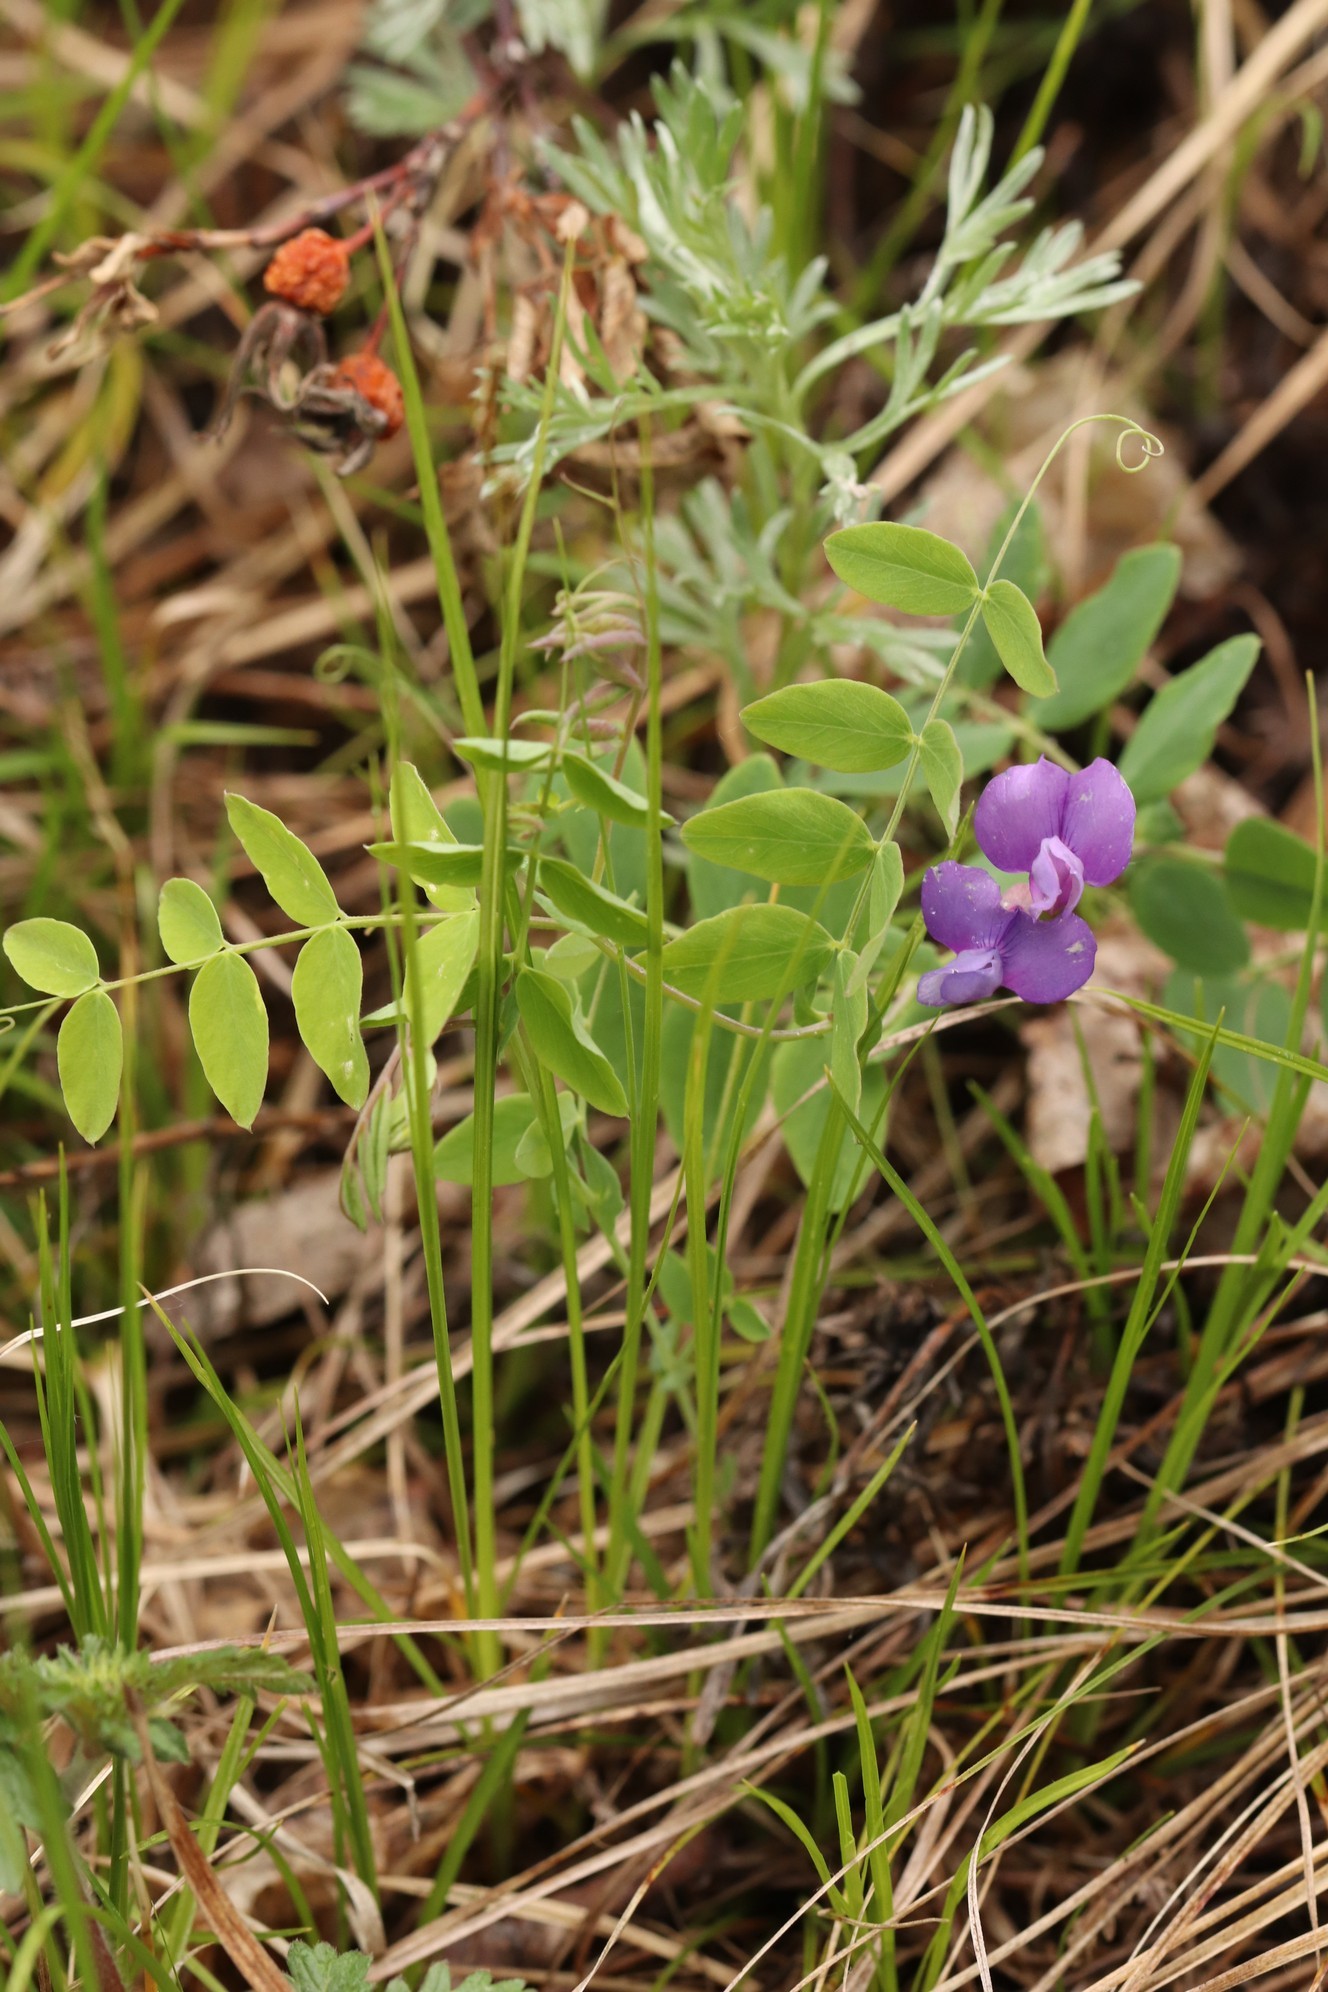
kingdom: Plantae
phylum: Tracheophyta
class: Magnoliopsida
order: Fabales
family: Fabaceae
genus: Lathyrus
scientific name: Lathyrus humilis
